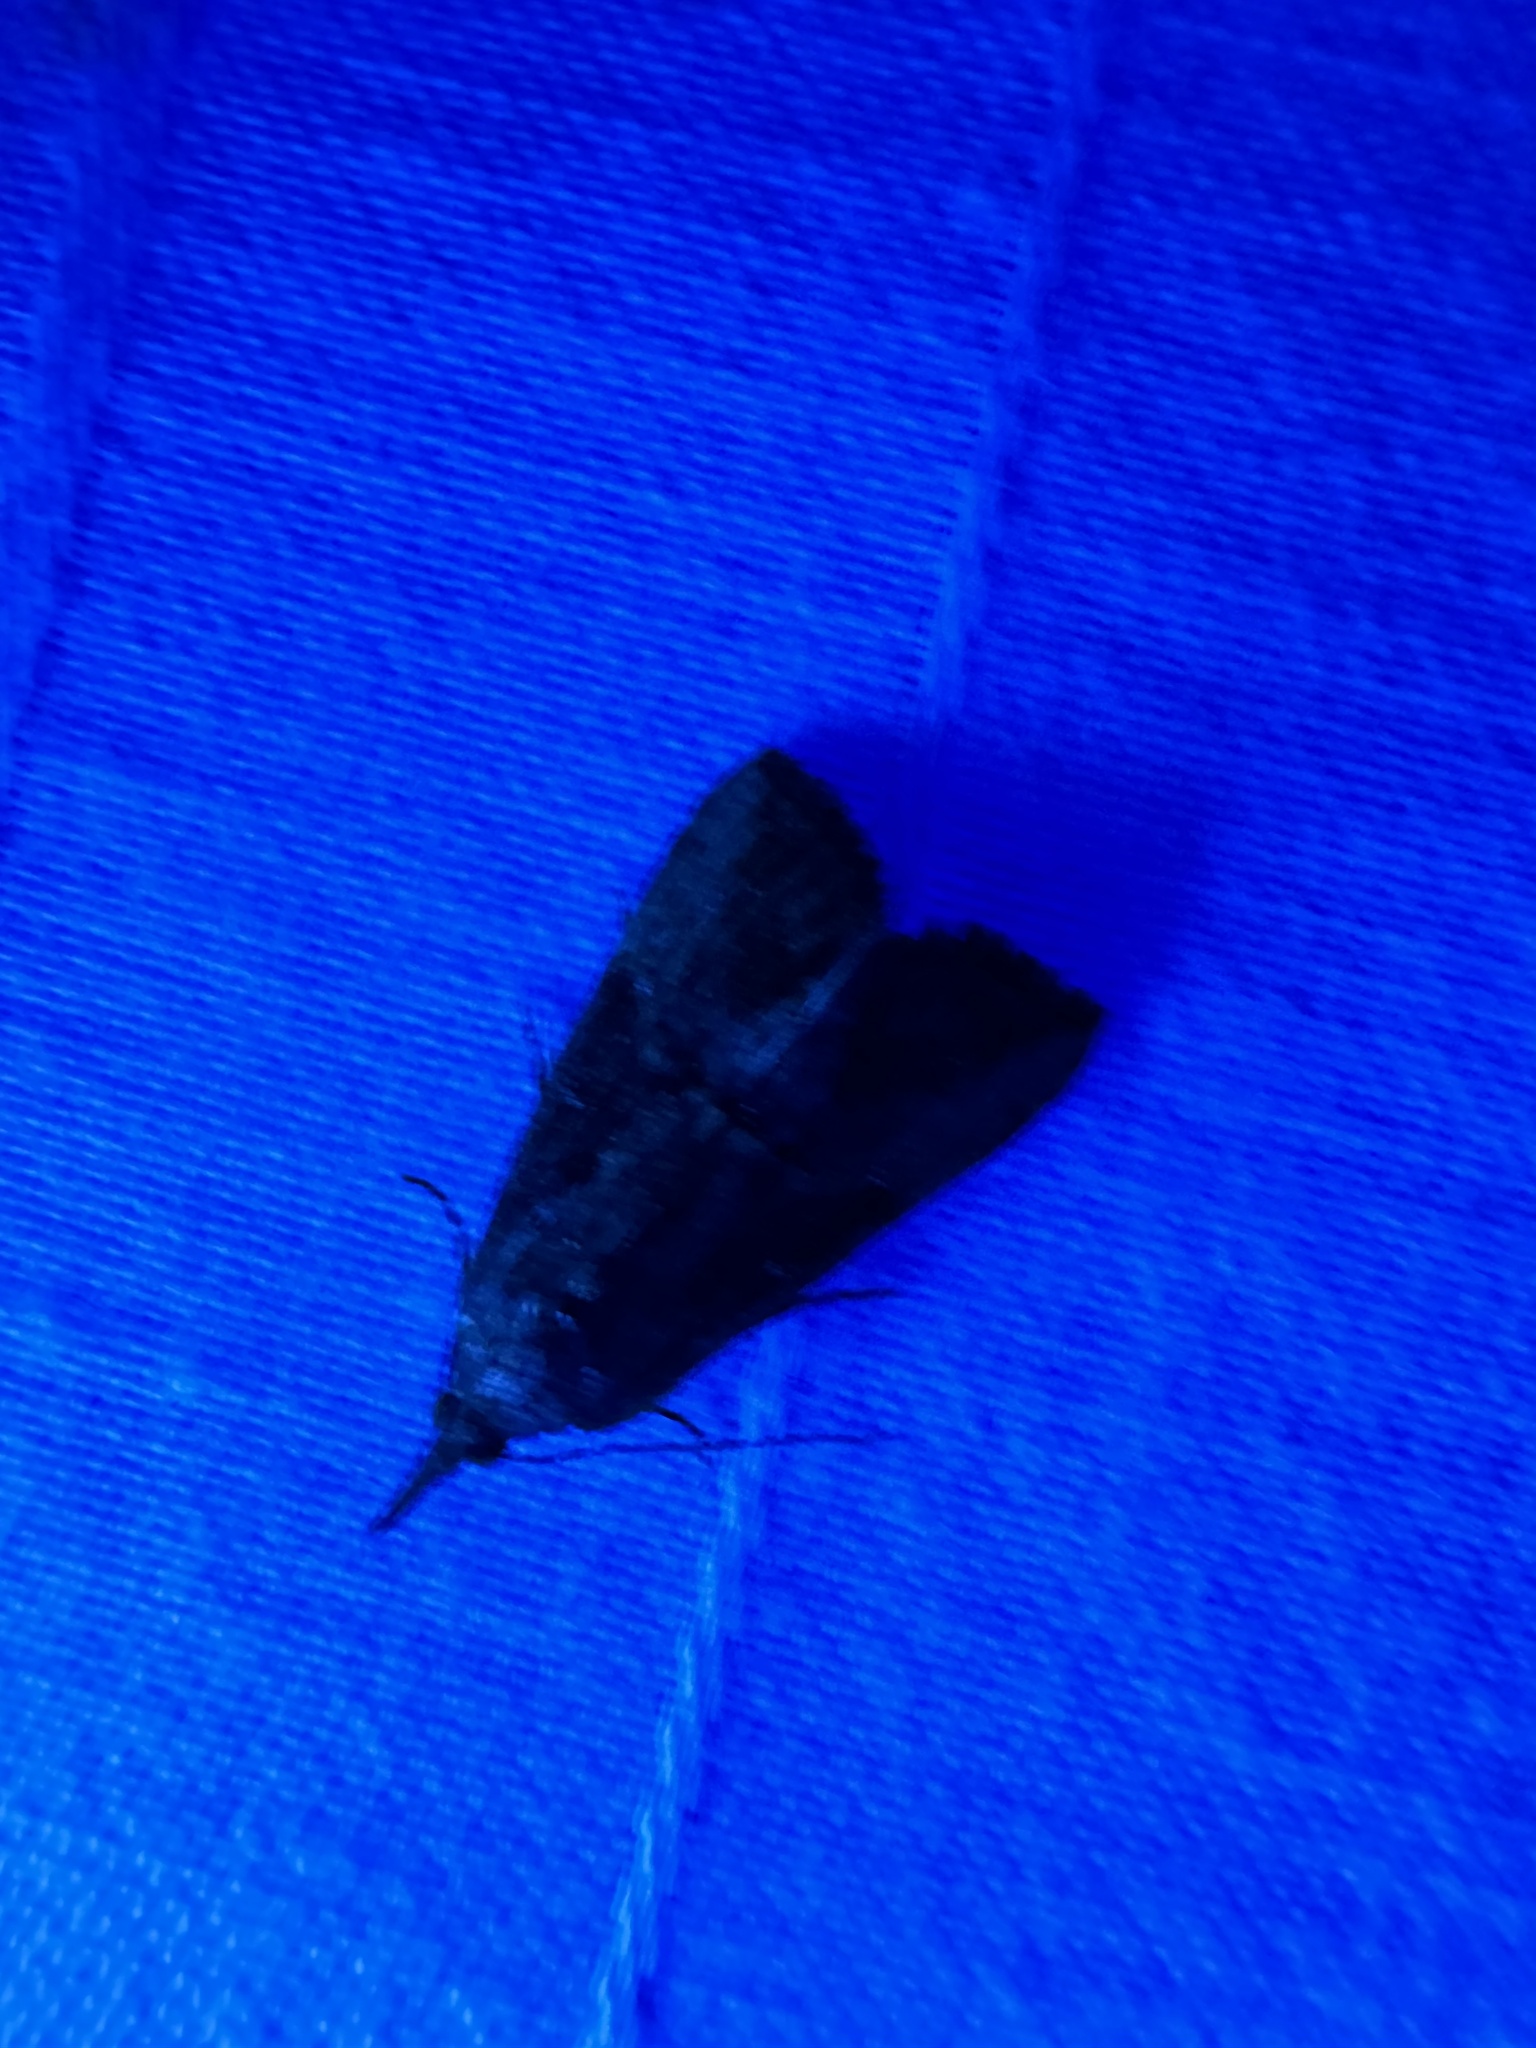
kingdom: Animalia
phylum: Arthropoda
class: Insecta
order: Lepidoptera
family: Erebidae
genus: Hypena
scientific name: Hypena scabra
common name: Green cloverworm
